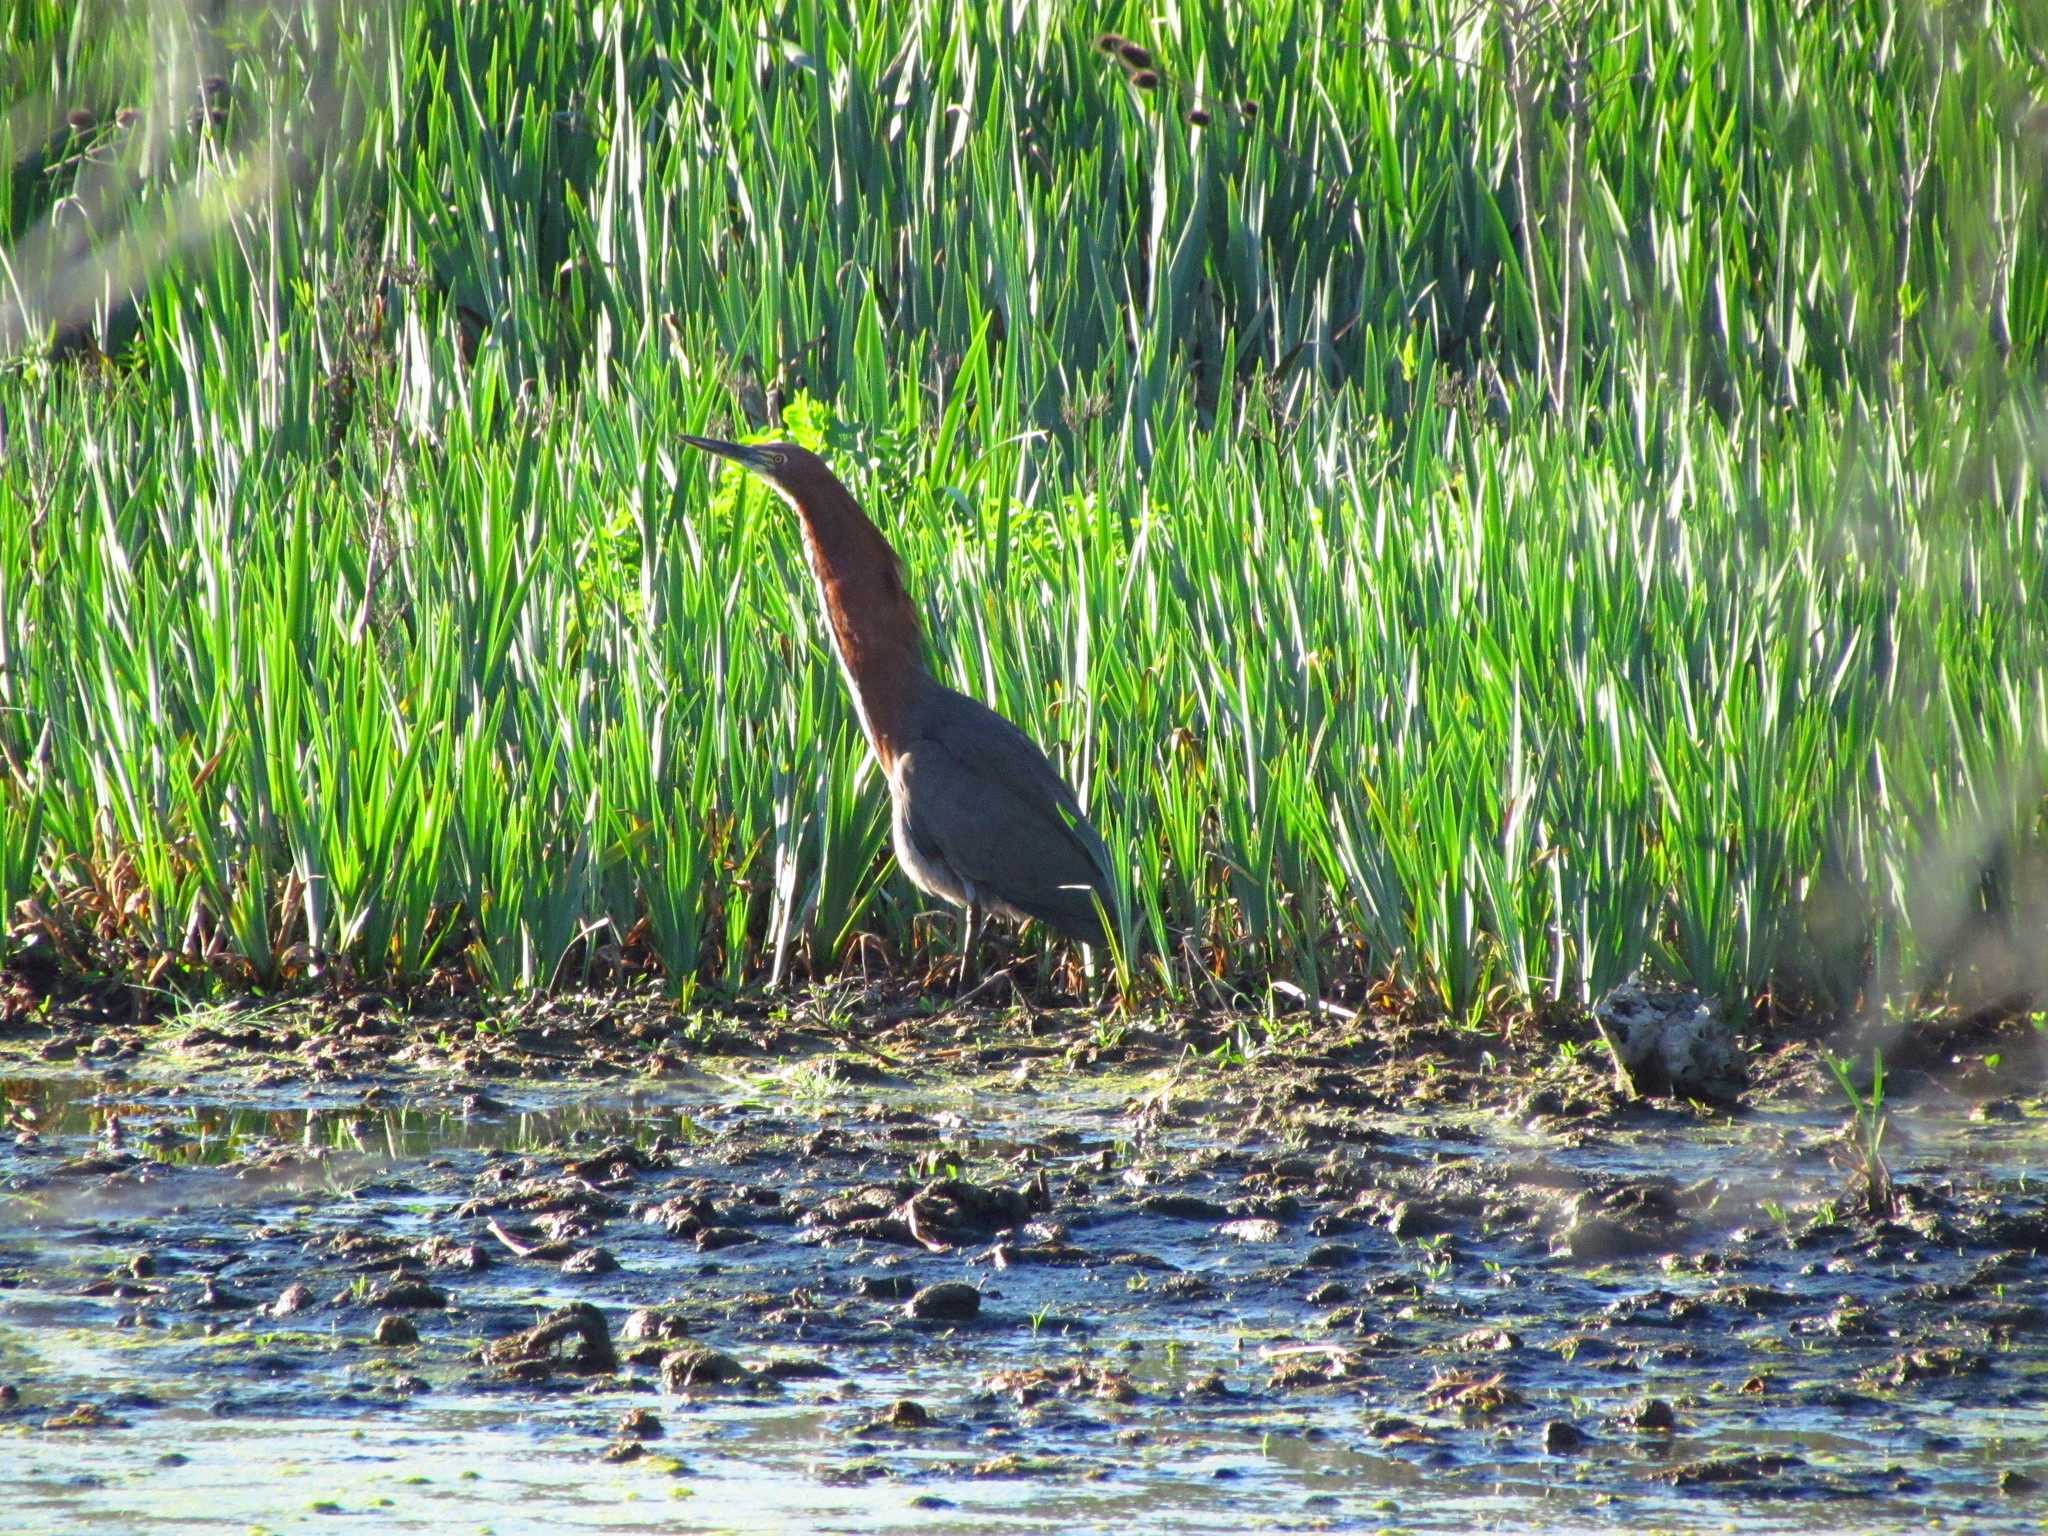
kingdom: Animalia
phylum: Chordata
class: Aves
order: Pelecaniformes
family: Ardeidae
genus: Tigrisoma
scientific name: Tigrisoma lineatum
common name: Rufescent tiger-heron
